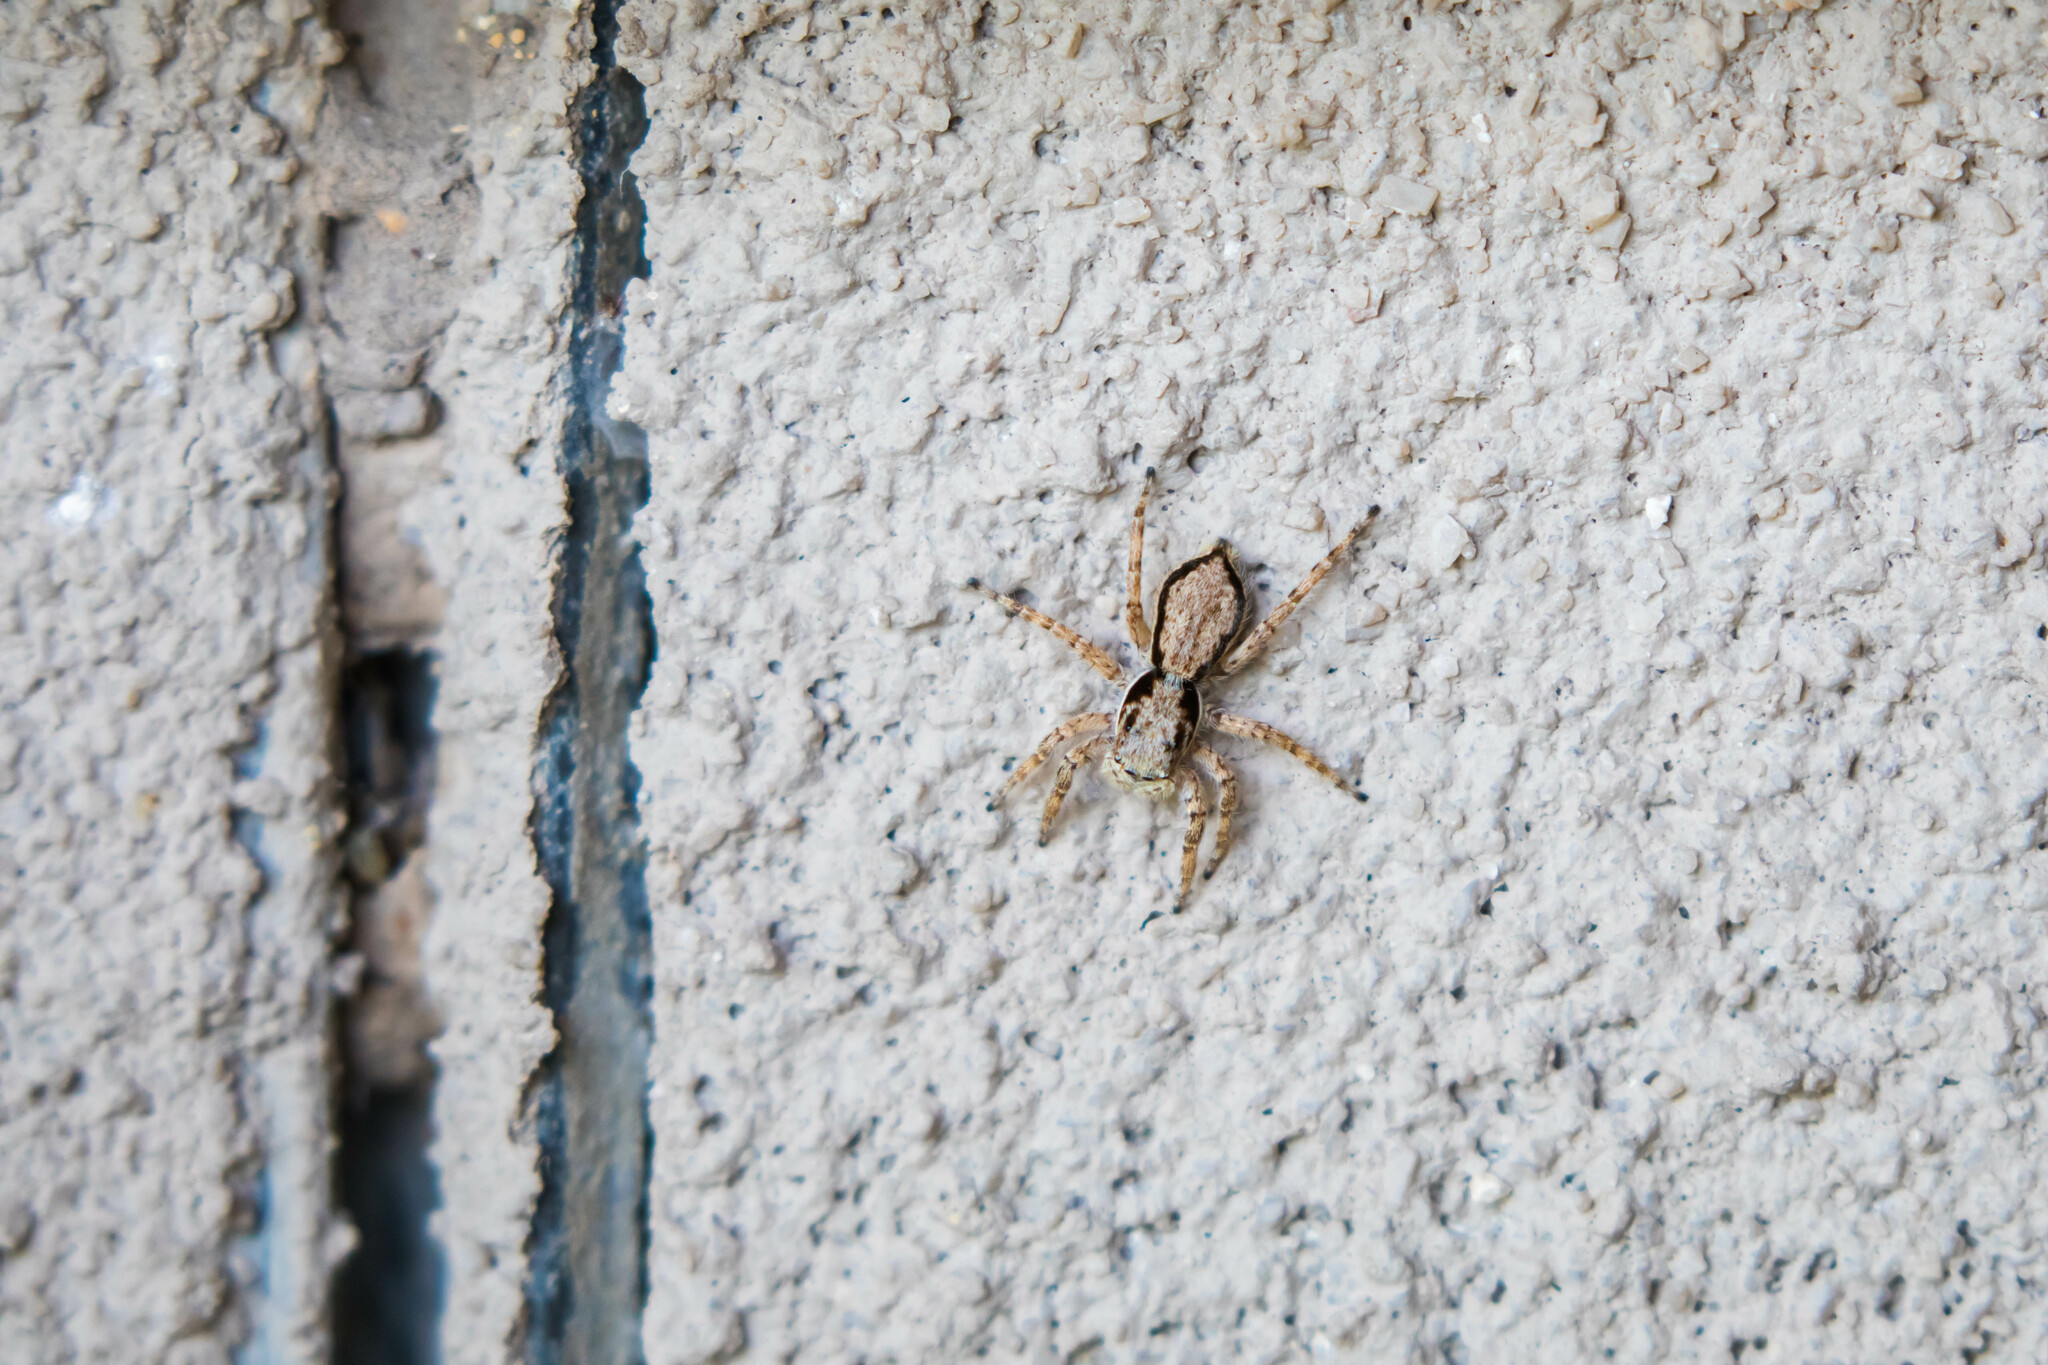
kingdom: Animalia
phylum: Arthropoda
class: Arachnida
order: Araneae
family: Salticidae
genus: Menemerus
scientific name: Menemerus bivittatus
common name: Gray wall jumper
